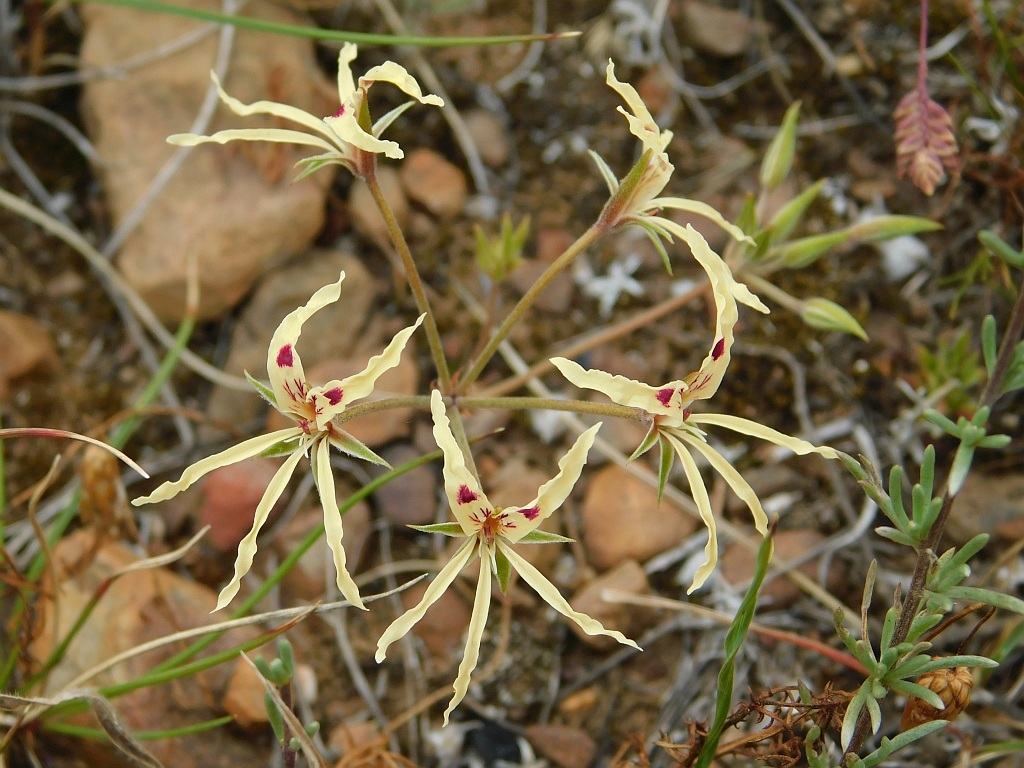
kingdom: Plantae
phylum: Tracheophyta
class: Magnoliopsida
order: Geraniales
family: Geraniaceae
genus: Pelargonium
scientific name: Pelargonium undulatum
